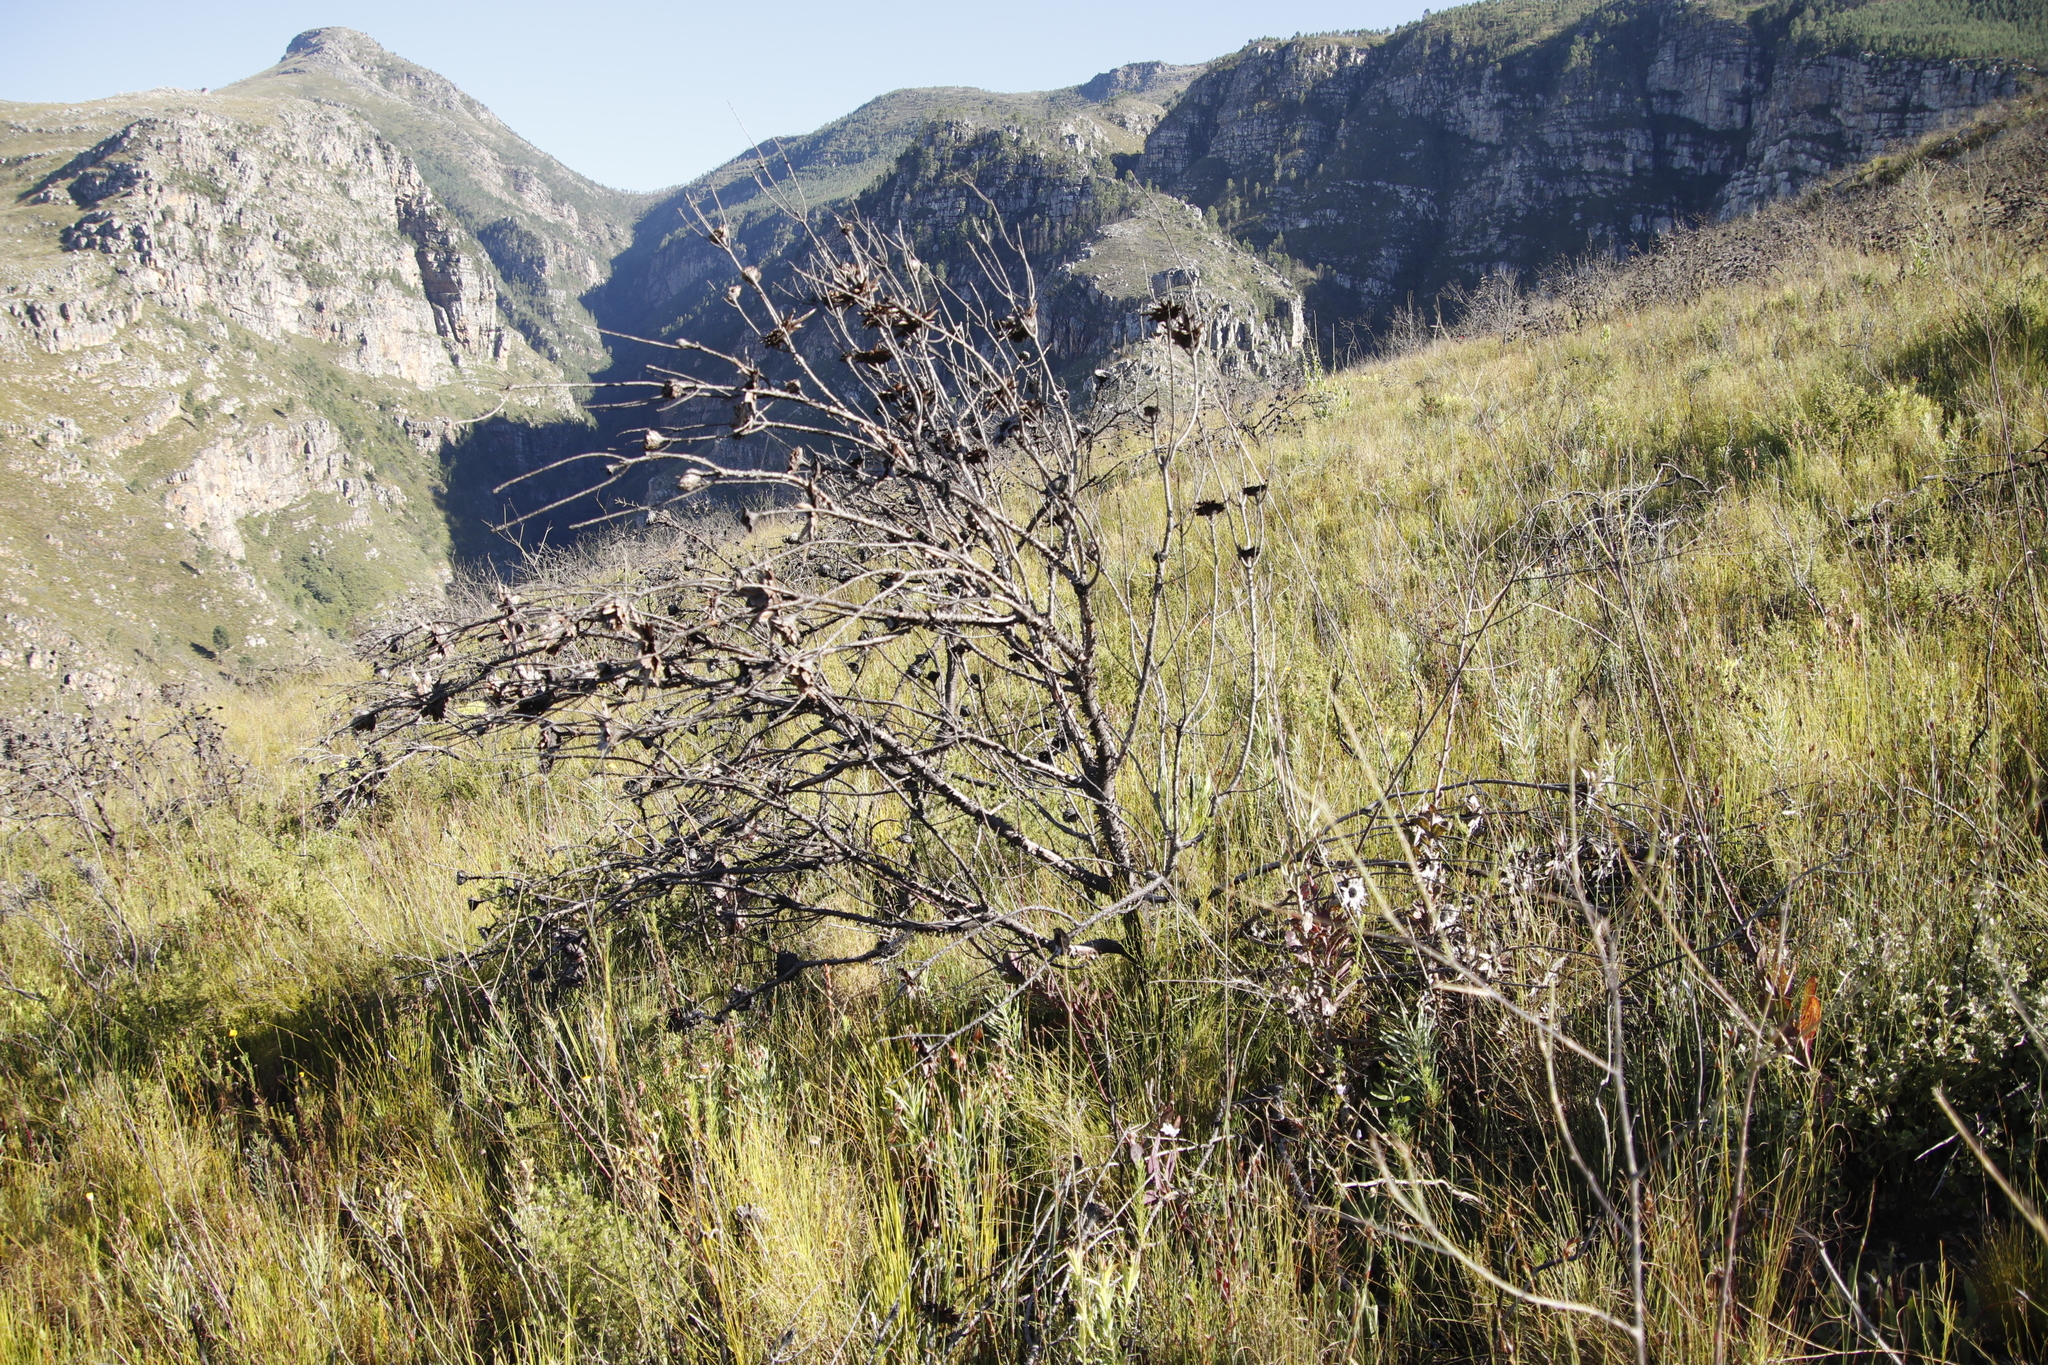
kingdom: Plantae
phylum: Tracheophyta
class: Magnoliopsida
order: Proteales
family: Proteaceae
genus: Protea
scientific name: Protea repens
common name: Sugarbush
